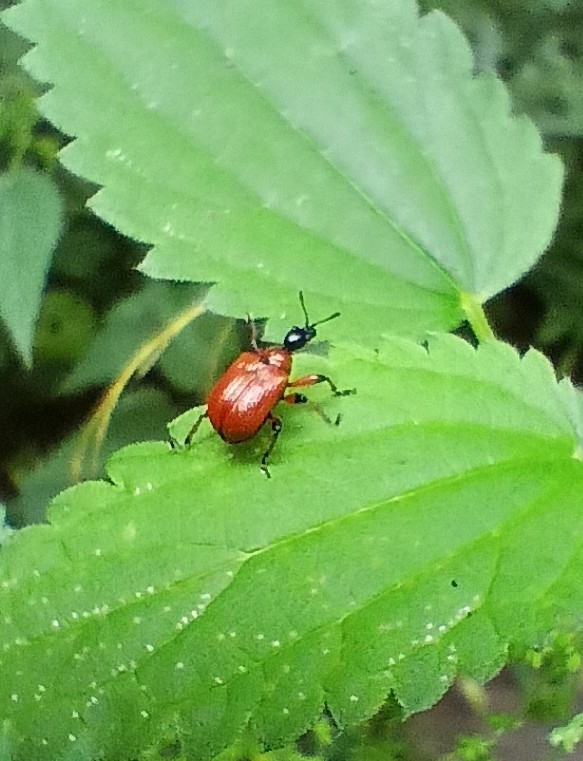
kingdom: Animalia
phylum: Arthropoda
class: Insecta
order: Coleoptera
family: Attelabidae
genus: Apoderus
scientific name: Apoderus coryli
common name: Hazel leaf roller
